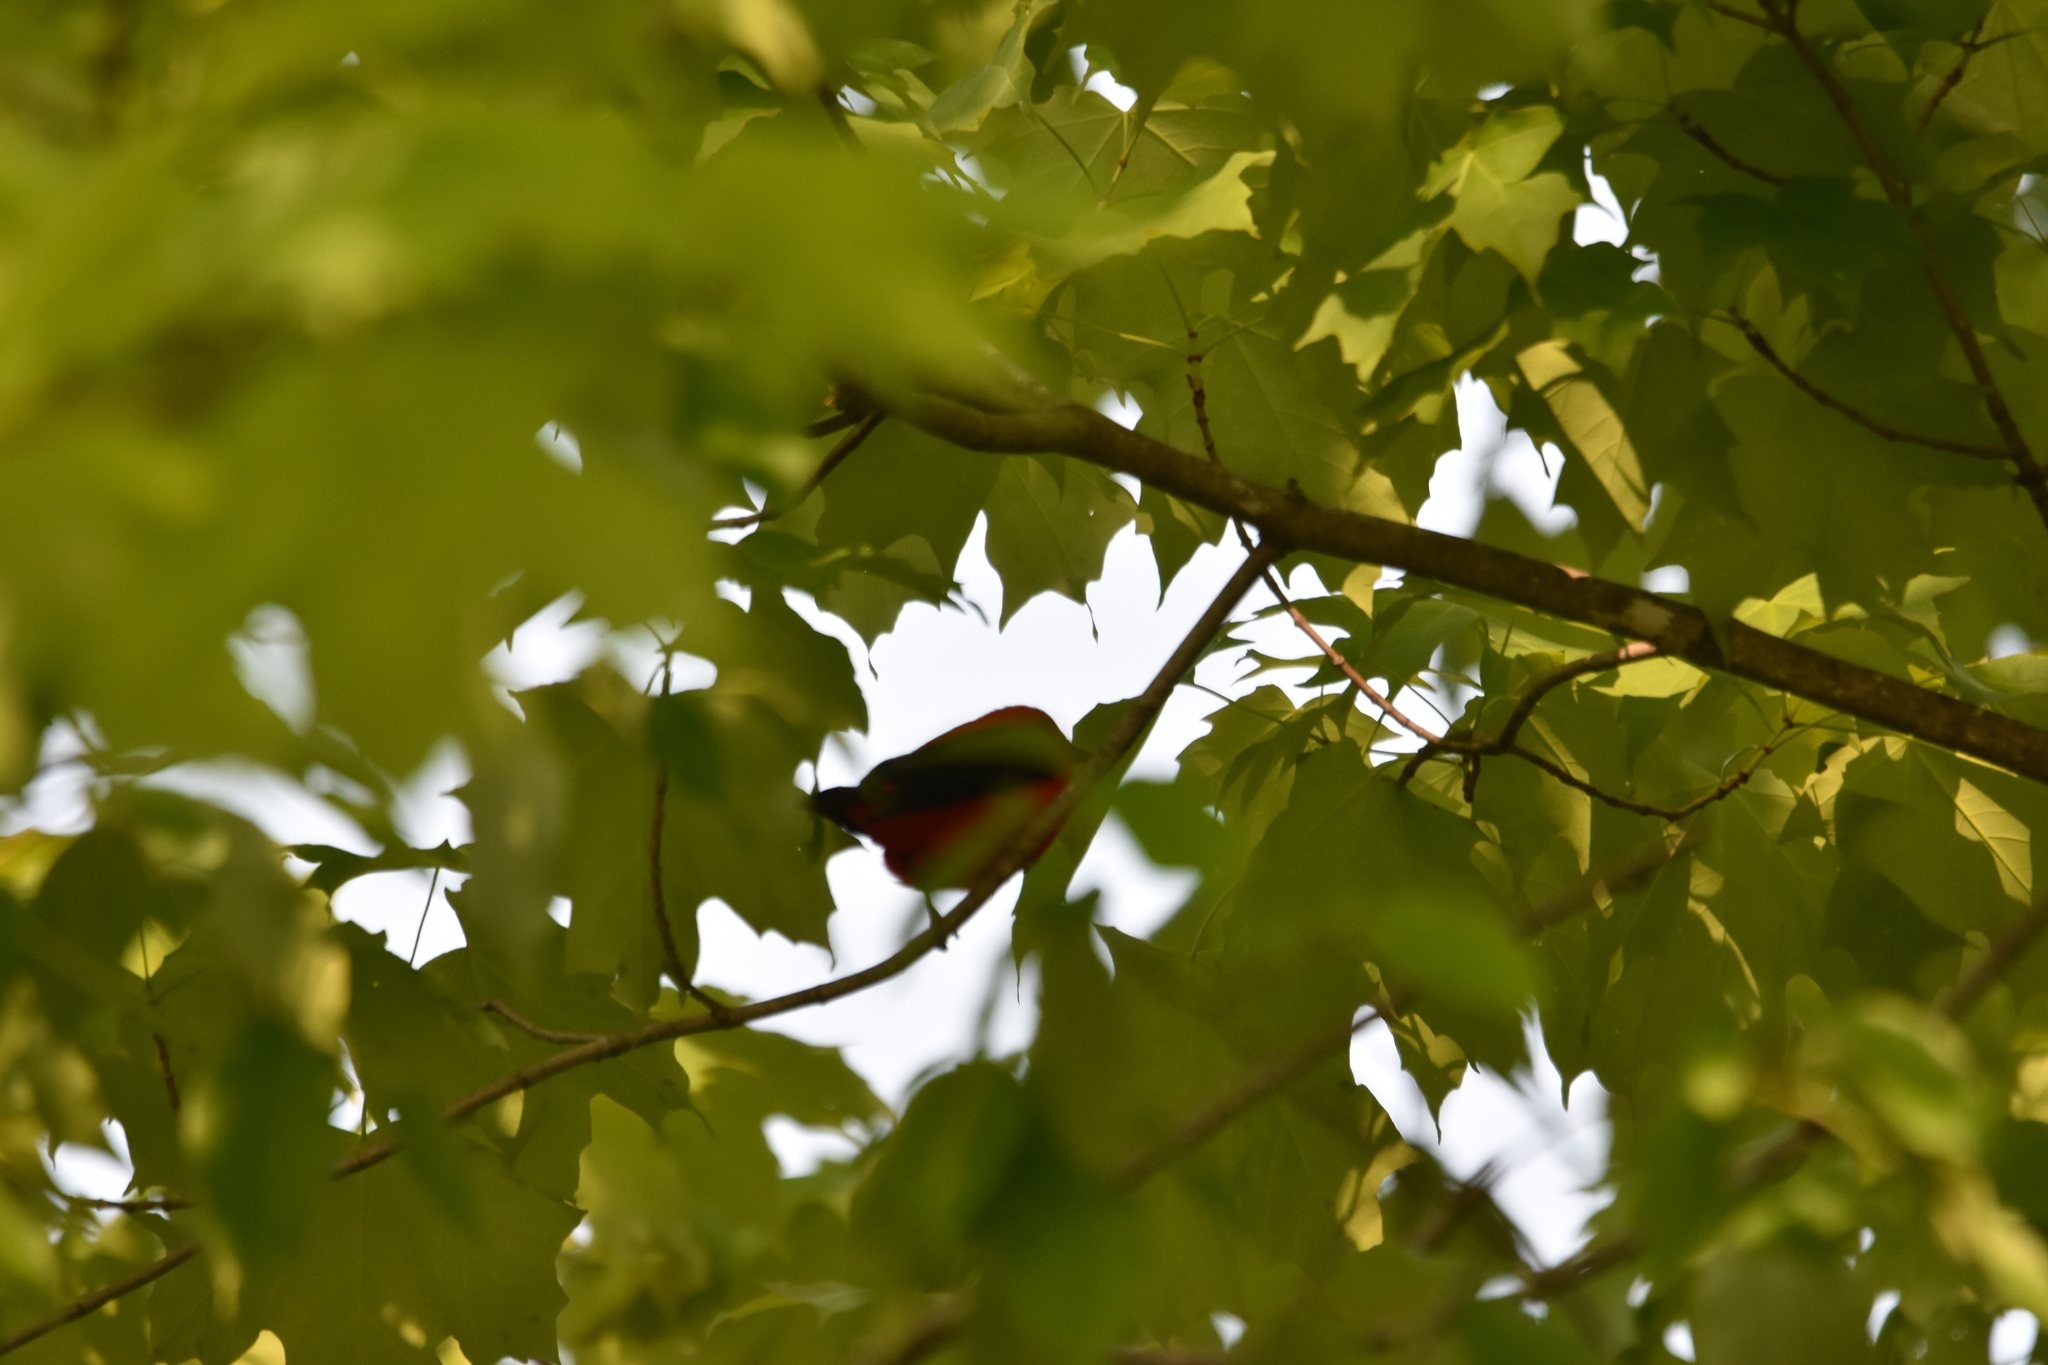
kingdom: Animalia
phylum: Chordata
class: Aves
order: Passeriformes
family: Cardinalidae
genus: Piranga
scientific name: Piranga olivacea
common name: Scarlet tanager
